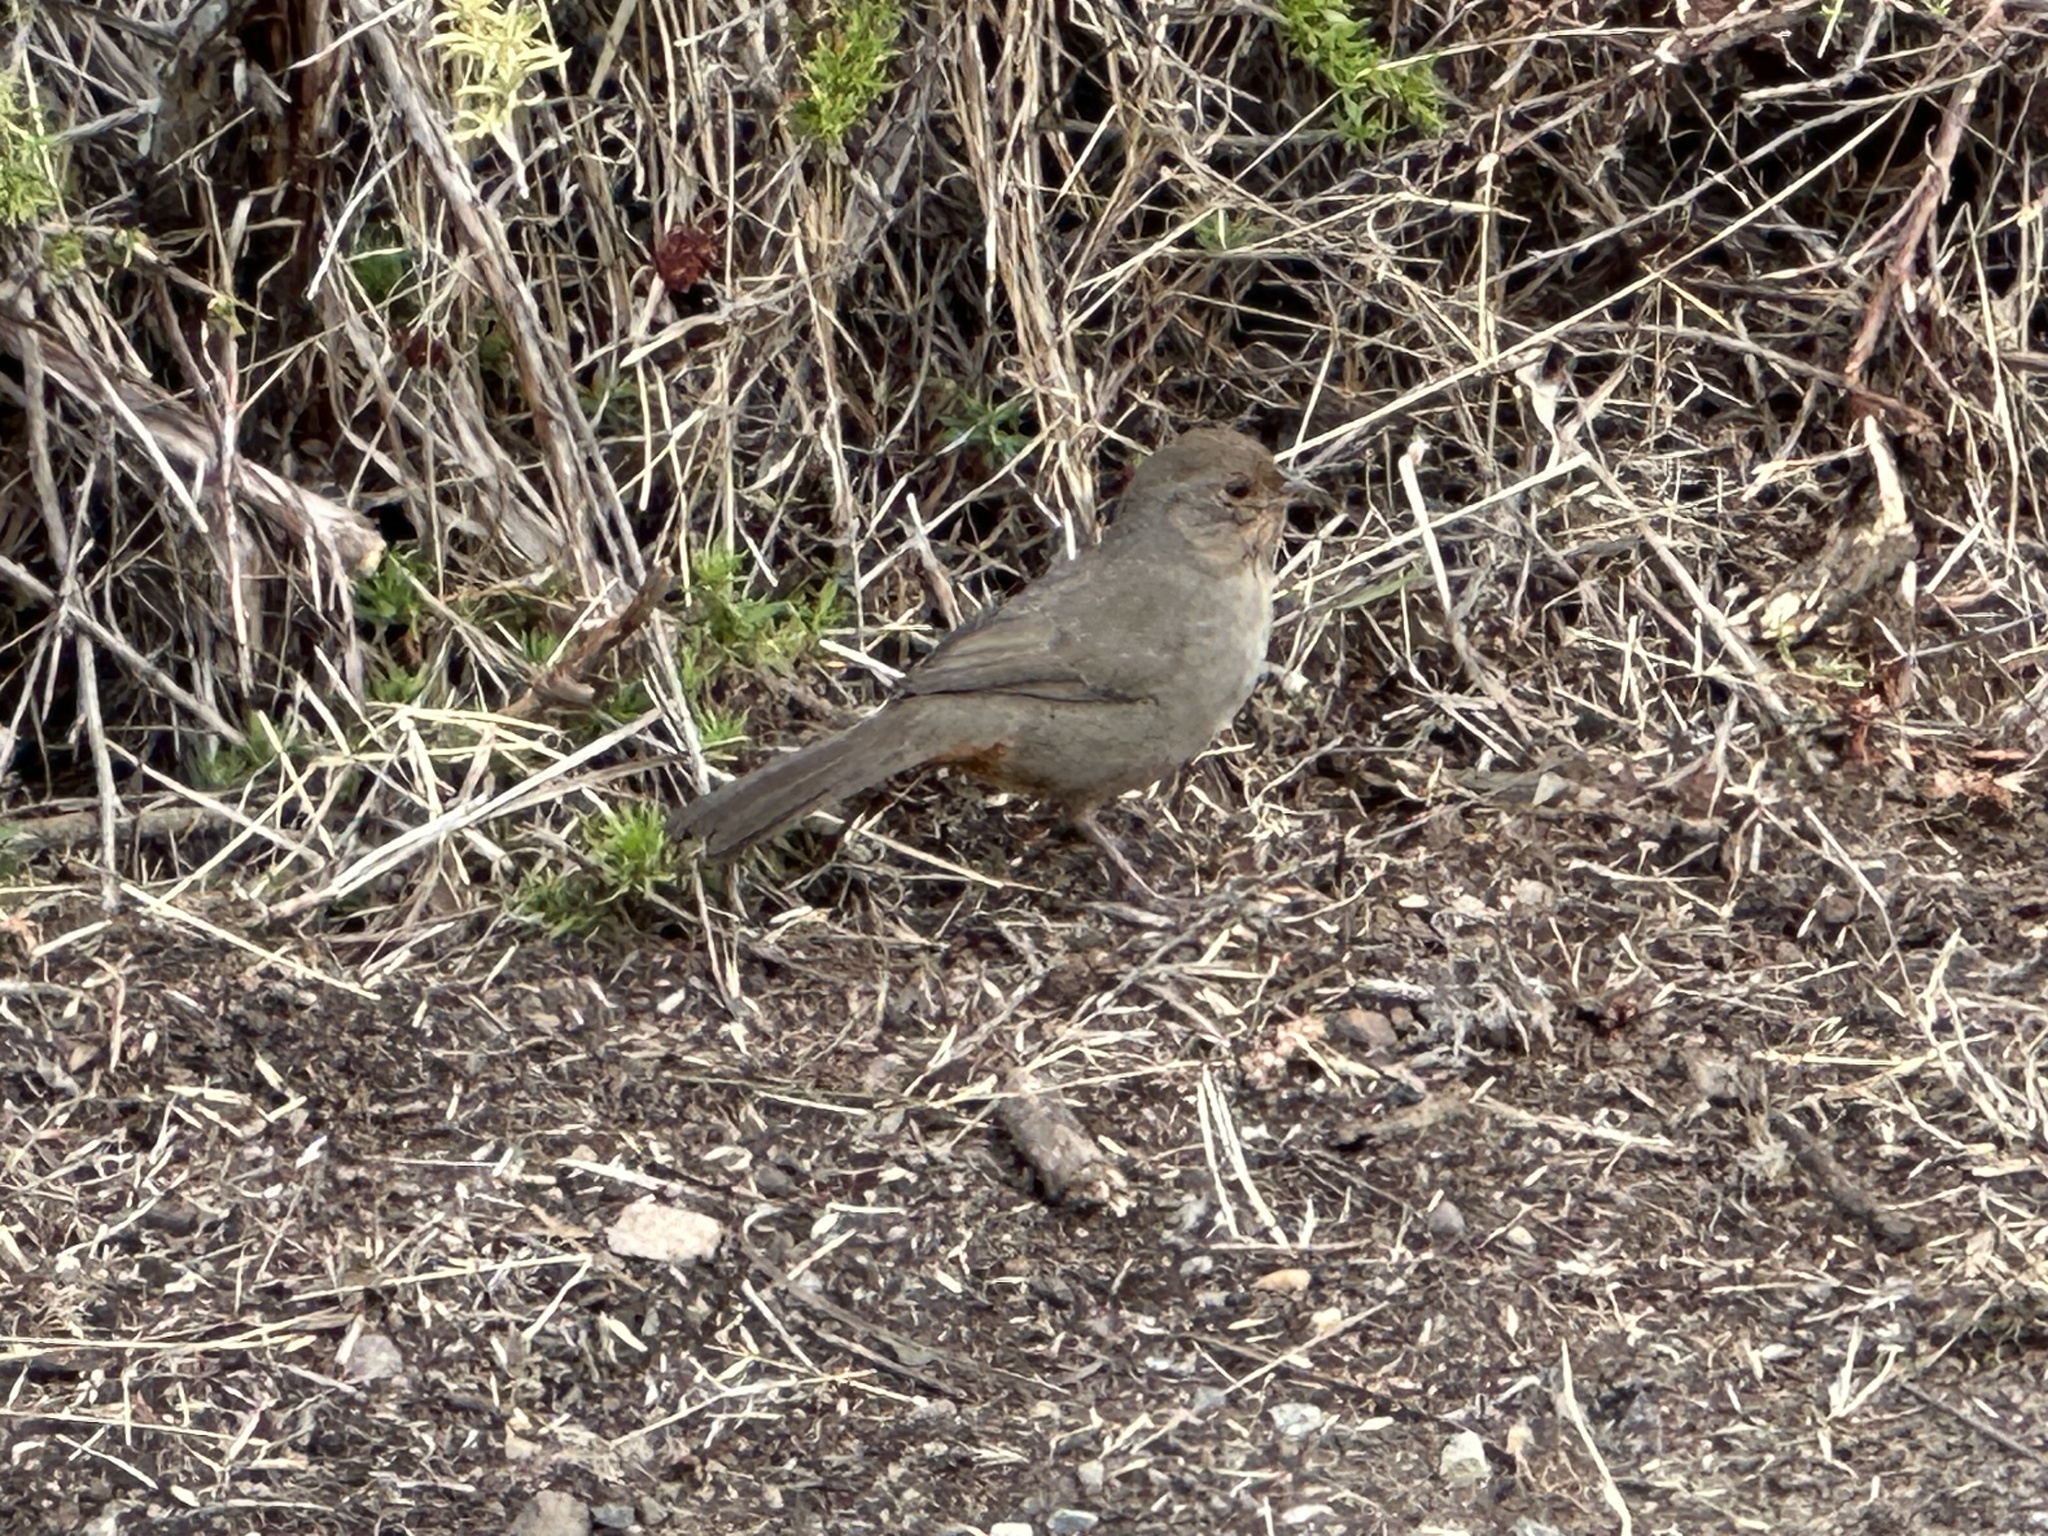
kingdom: Animalia
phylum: Chordata
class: Aves
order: Passeriformes
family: Passerellidae
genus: Melozone
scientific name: Melozone crissalis
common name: California towhee
